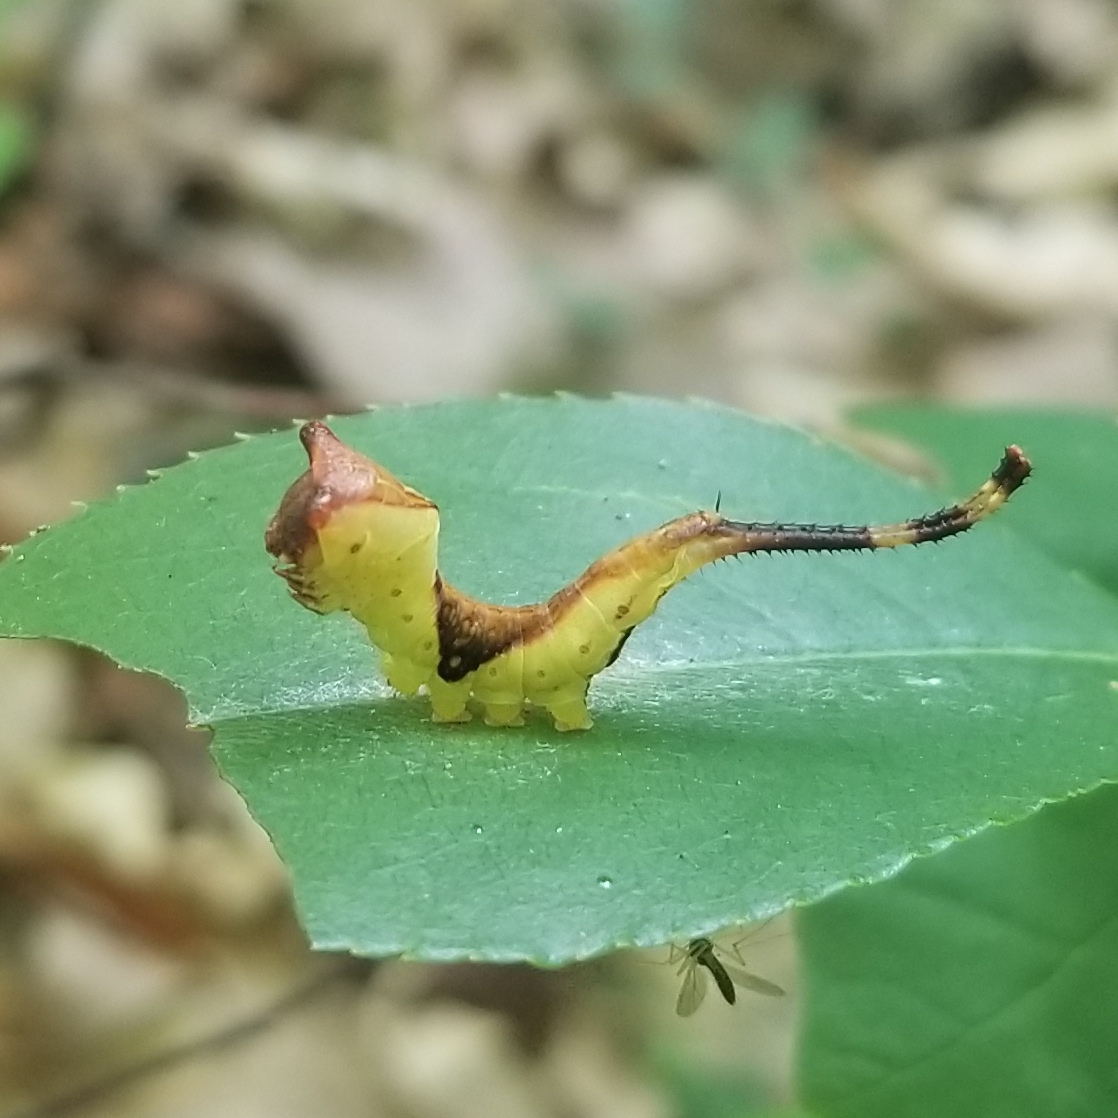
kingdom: Animalia
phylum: Arthropoda
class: Insecta
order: Lepidoptera
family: Notodontidae
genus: Furcula
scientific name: Furcula borealis
